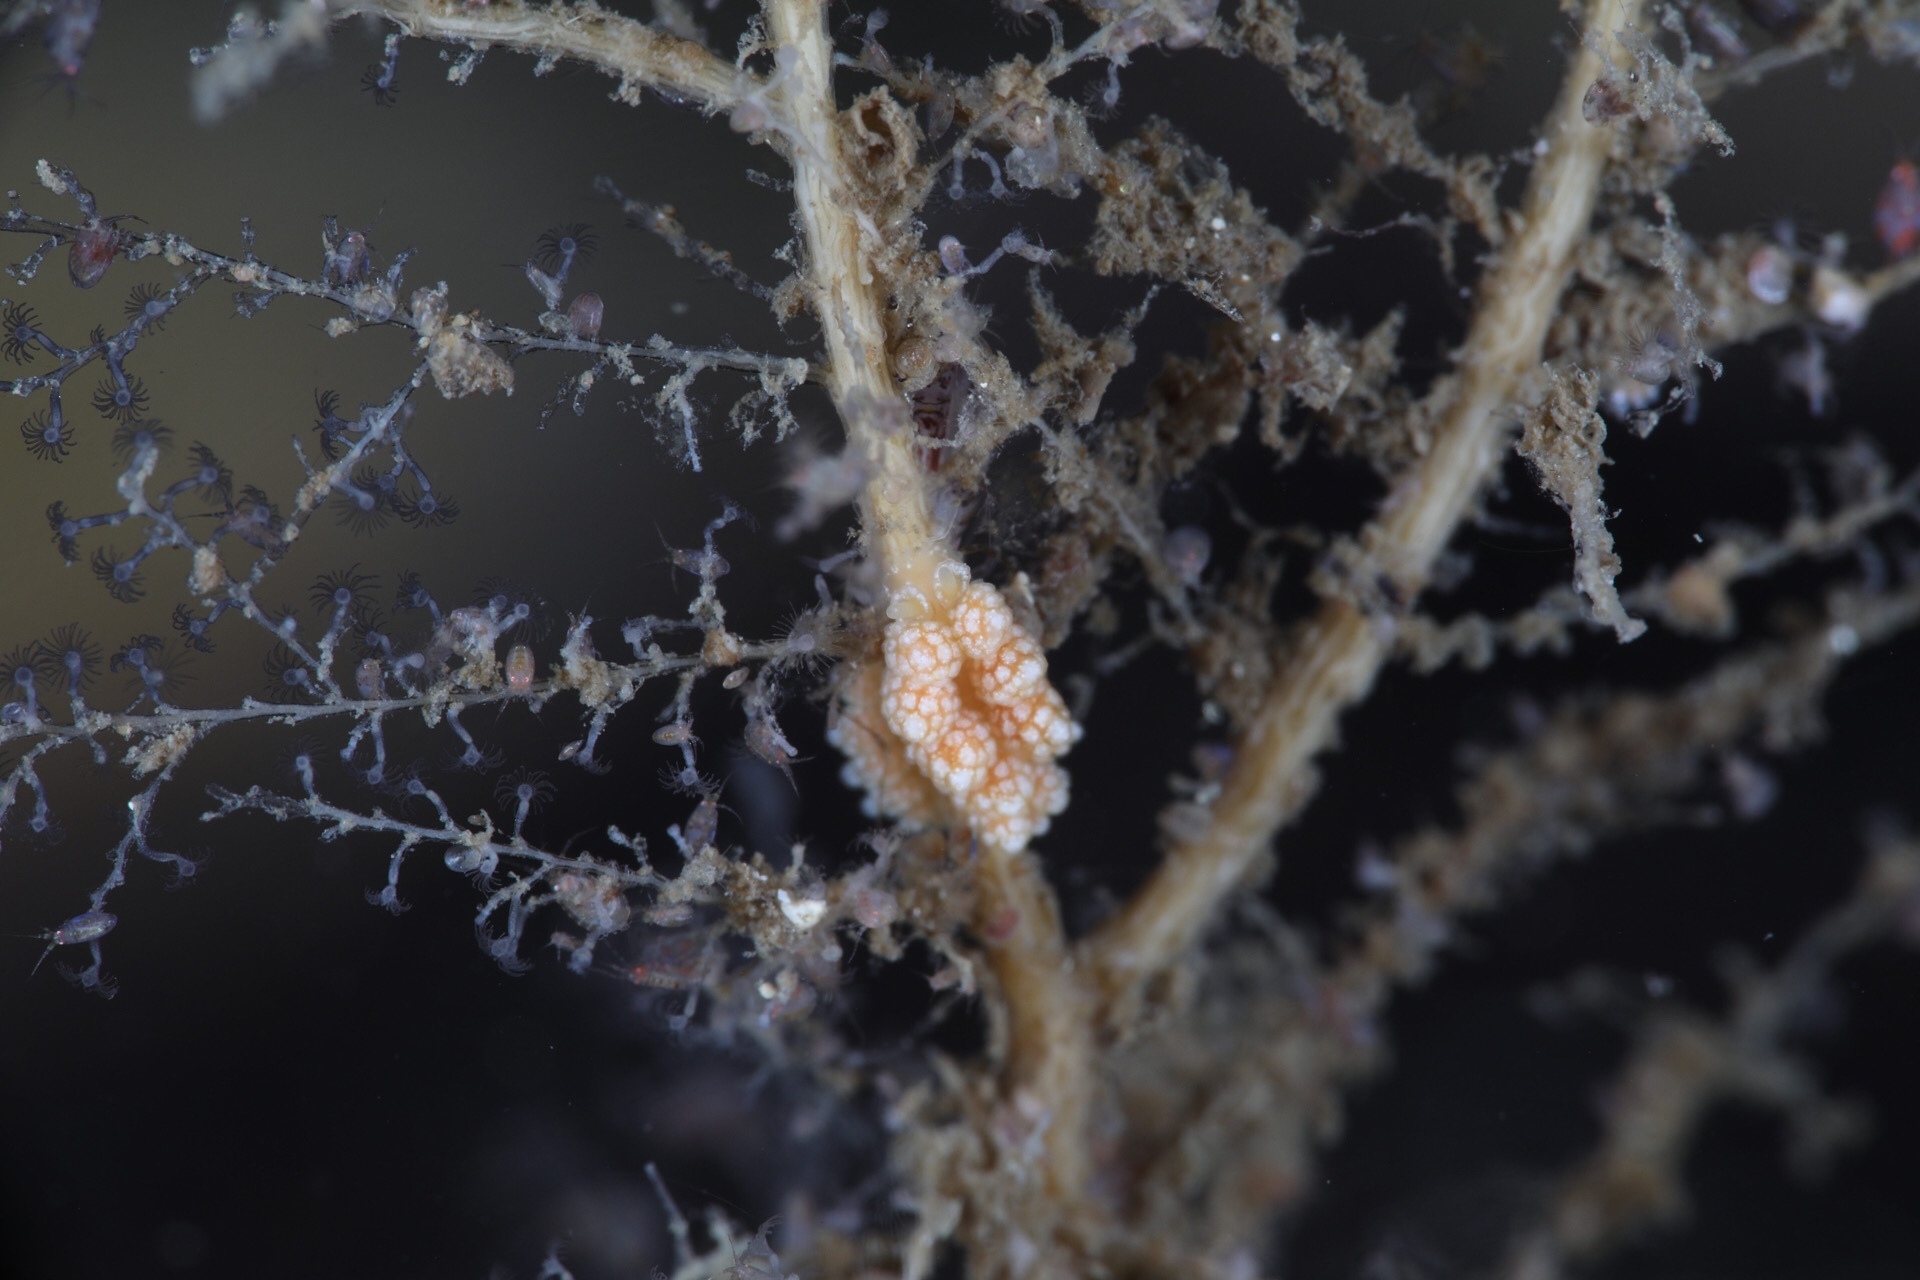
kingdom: Animalia
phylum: Mollusca
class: Gastropoda
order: Nudibranchia
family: Dotidae
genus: Doto
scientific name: Doto fragilis
